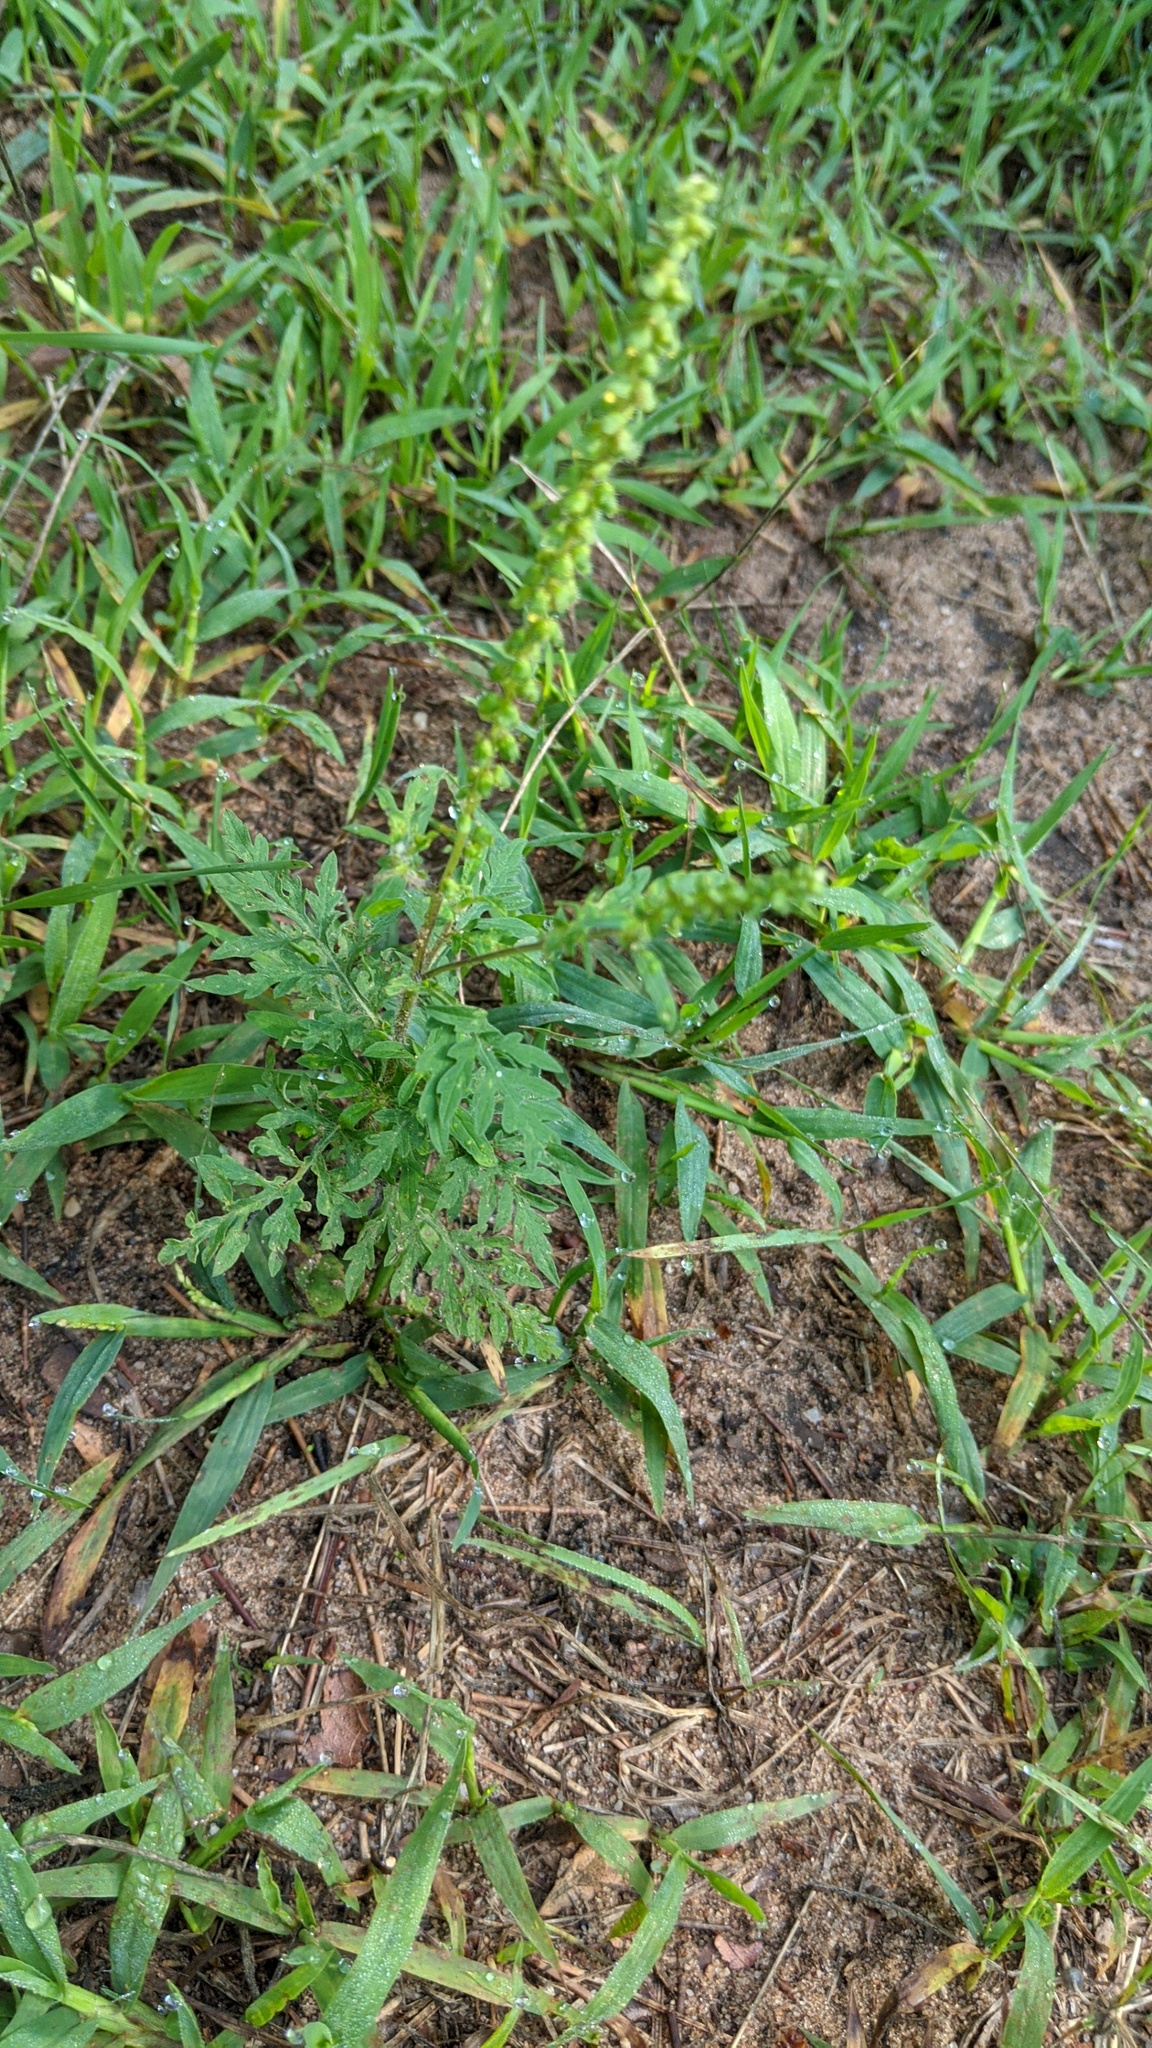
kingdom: Plantae
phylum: Tracheophyta
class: Magnoliopsida
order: Asterales
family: Asteraceae
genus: Ambrosia
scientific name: Ambrosia artemisiifolia
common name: Annual ragweed
